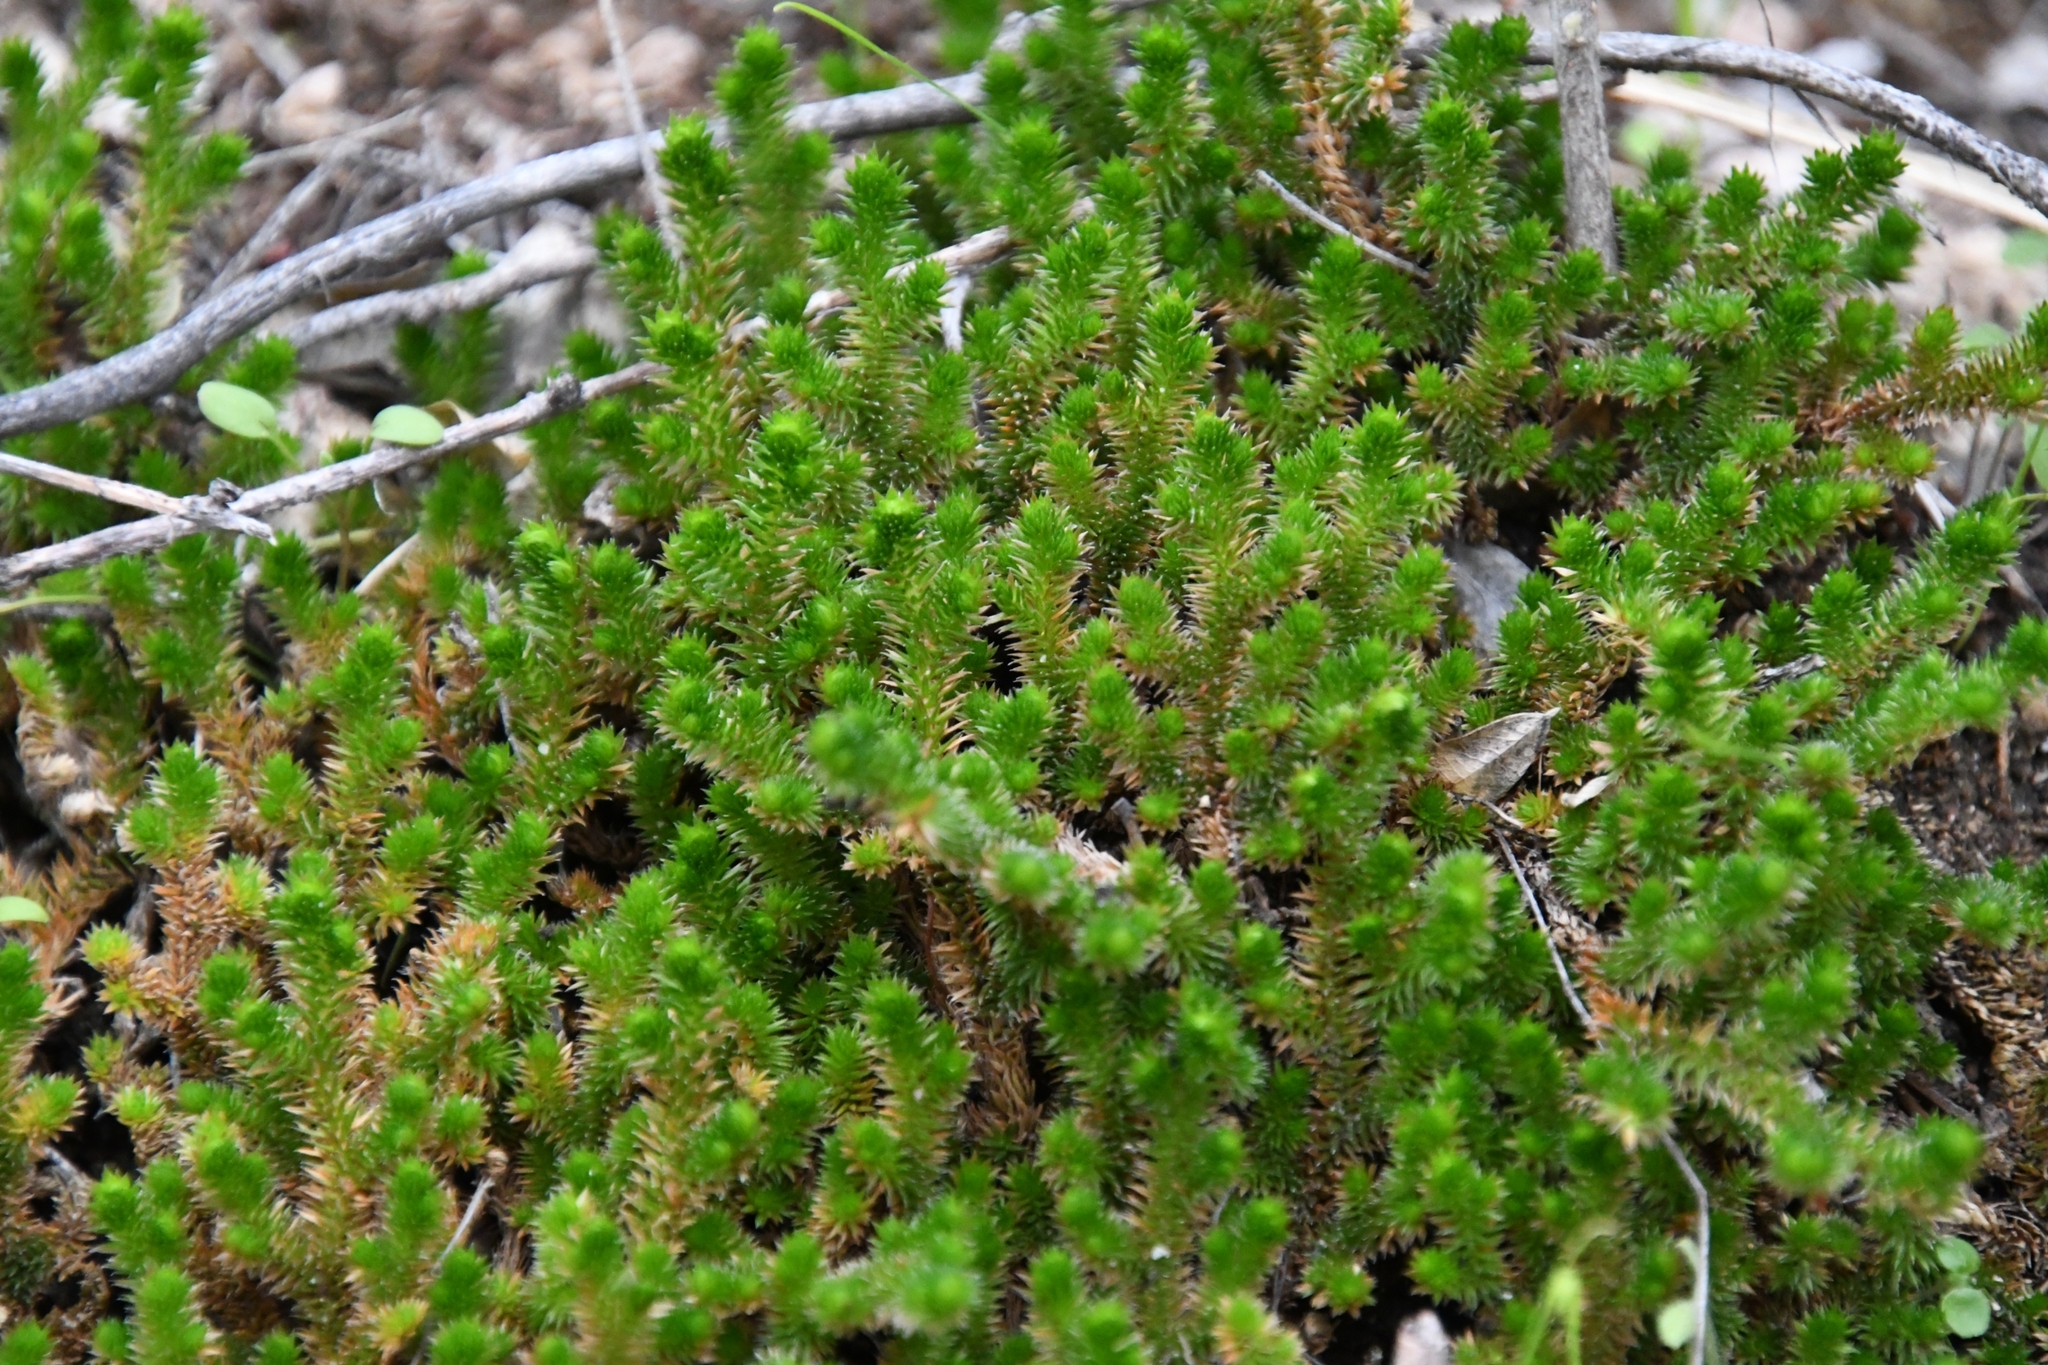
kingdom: Plantae
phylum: Tracheophyta
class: Lycopodiopsida
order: Selaginellales
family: Selaginellaceae
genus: Selaginella
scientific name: Selaginella arizonica
